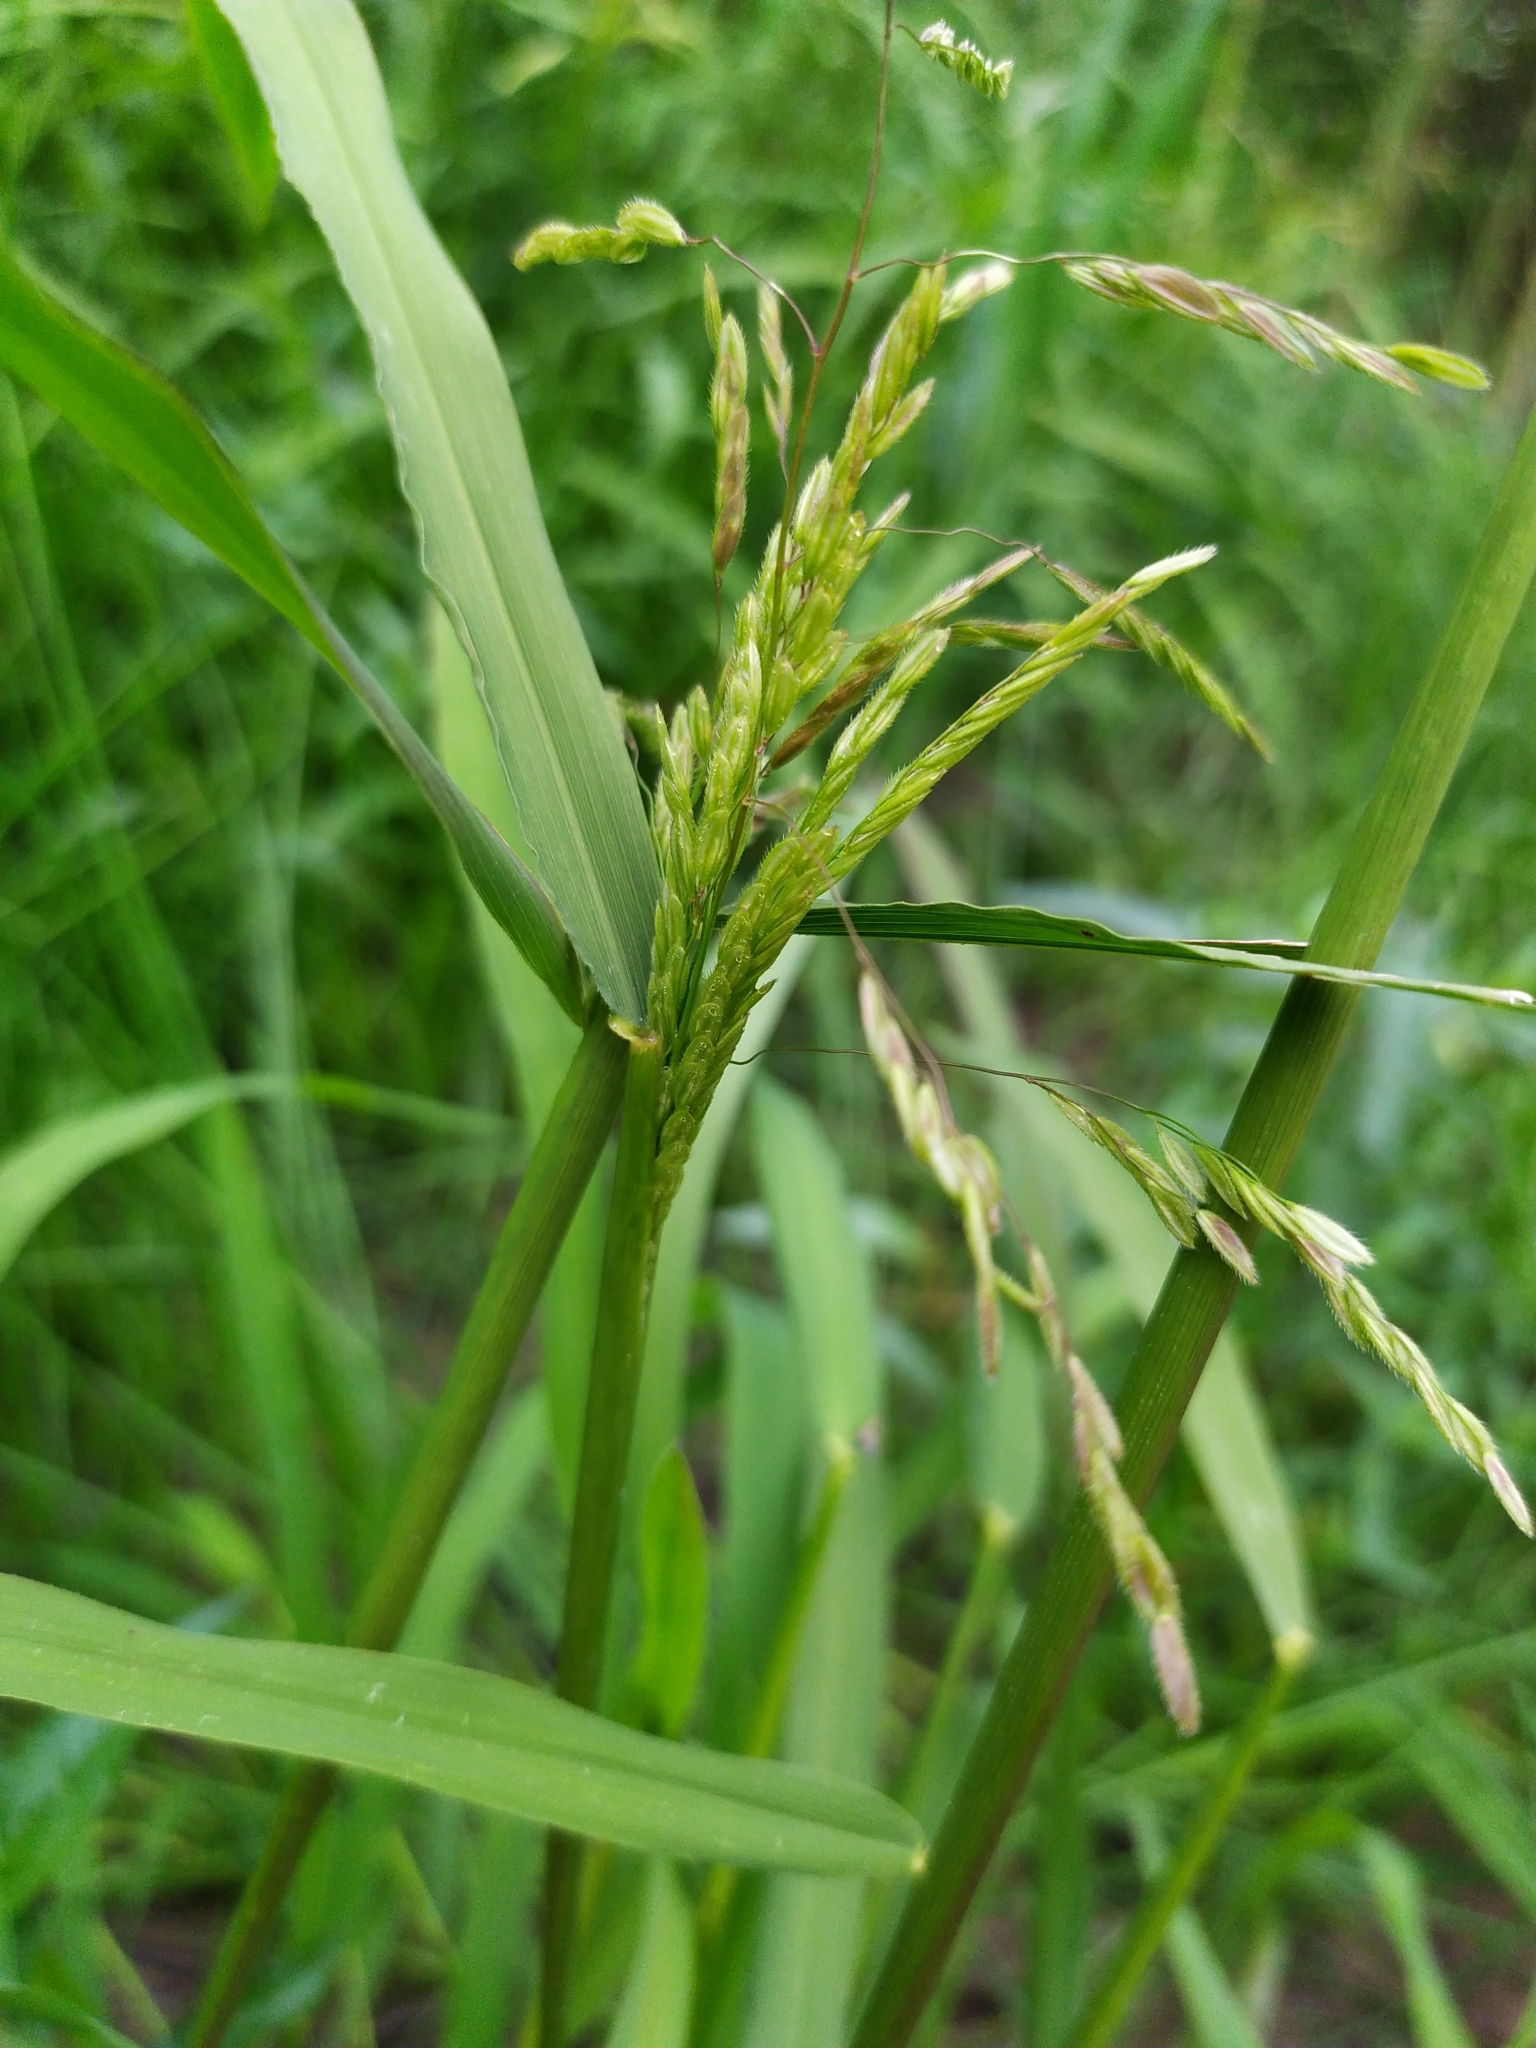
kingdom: Plantae
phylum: Tracheophyta
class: Liliopsida
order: Poales
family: Poaceae
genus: Leersia
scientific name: Leersia oryzoides
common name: Cut-grass
